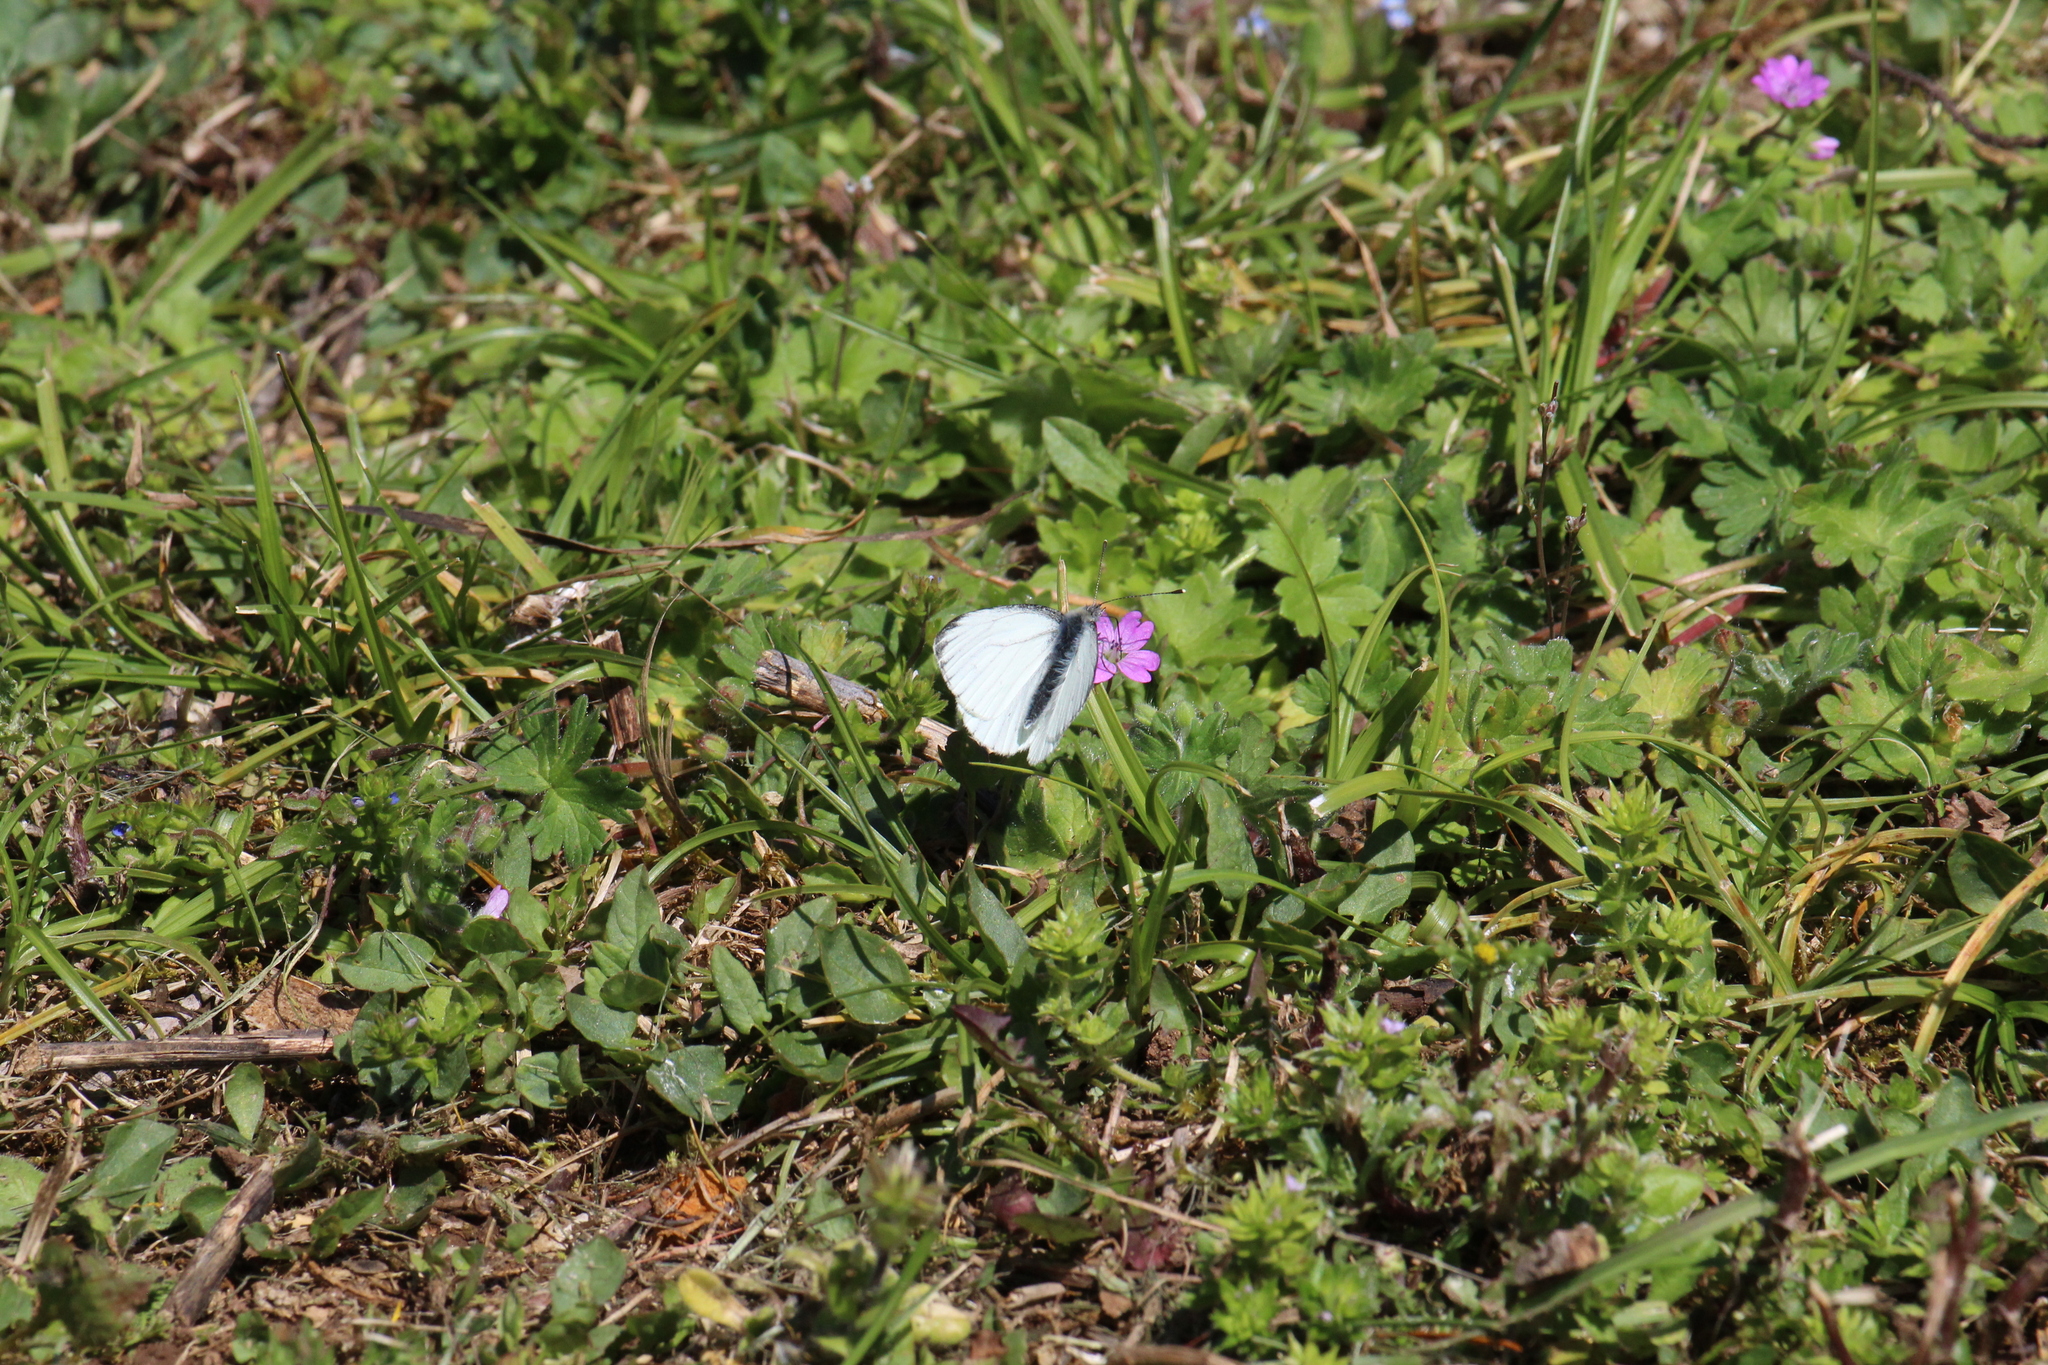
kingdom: Animalia
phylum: Arthropoda
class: Insecta
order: Lepidoptera
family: Pieridae
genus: Pieris
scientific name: Pieris napi
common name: Green-veined white
